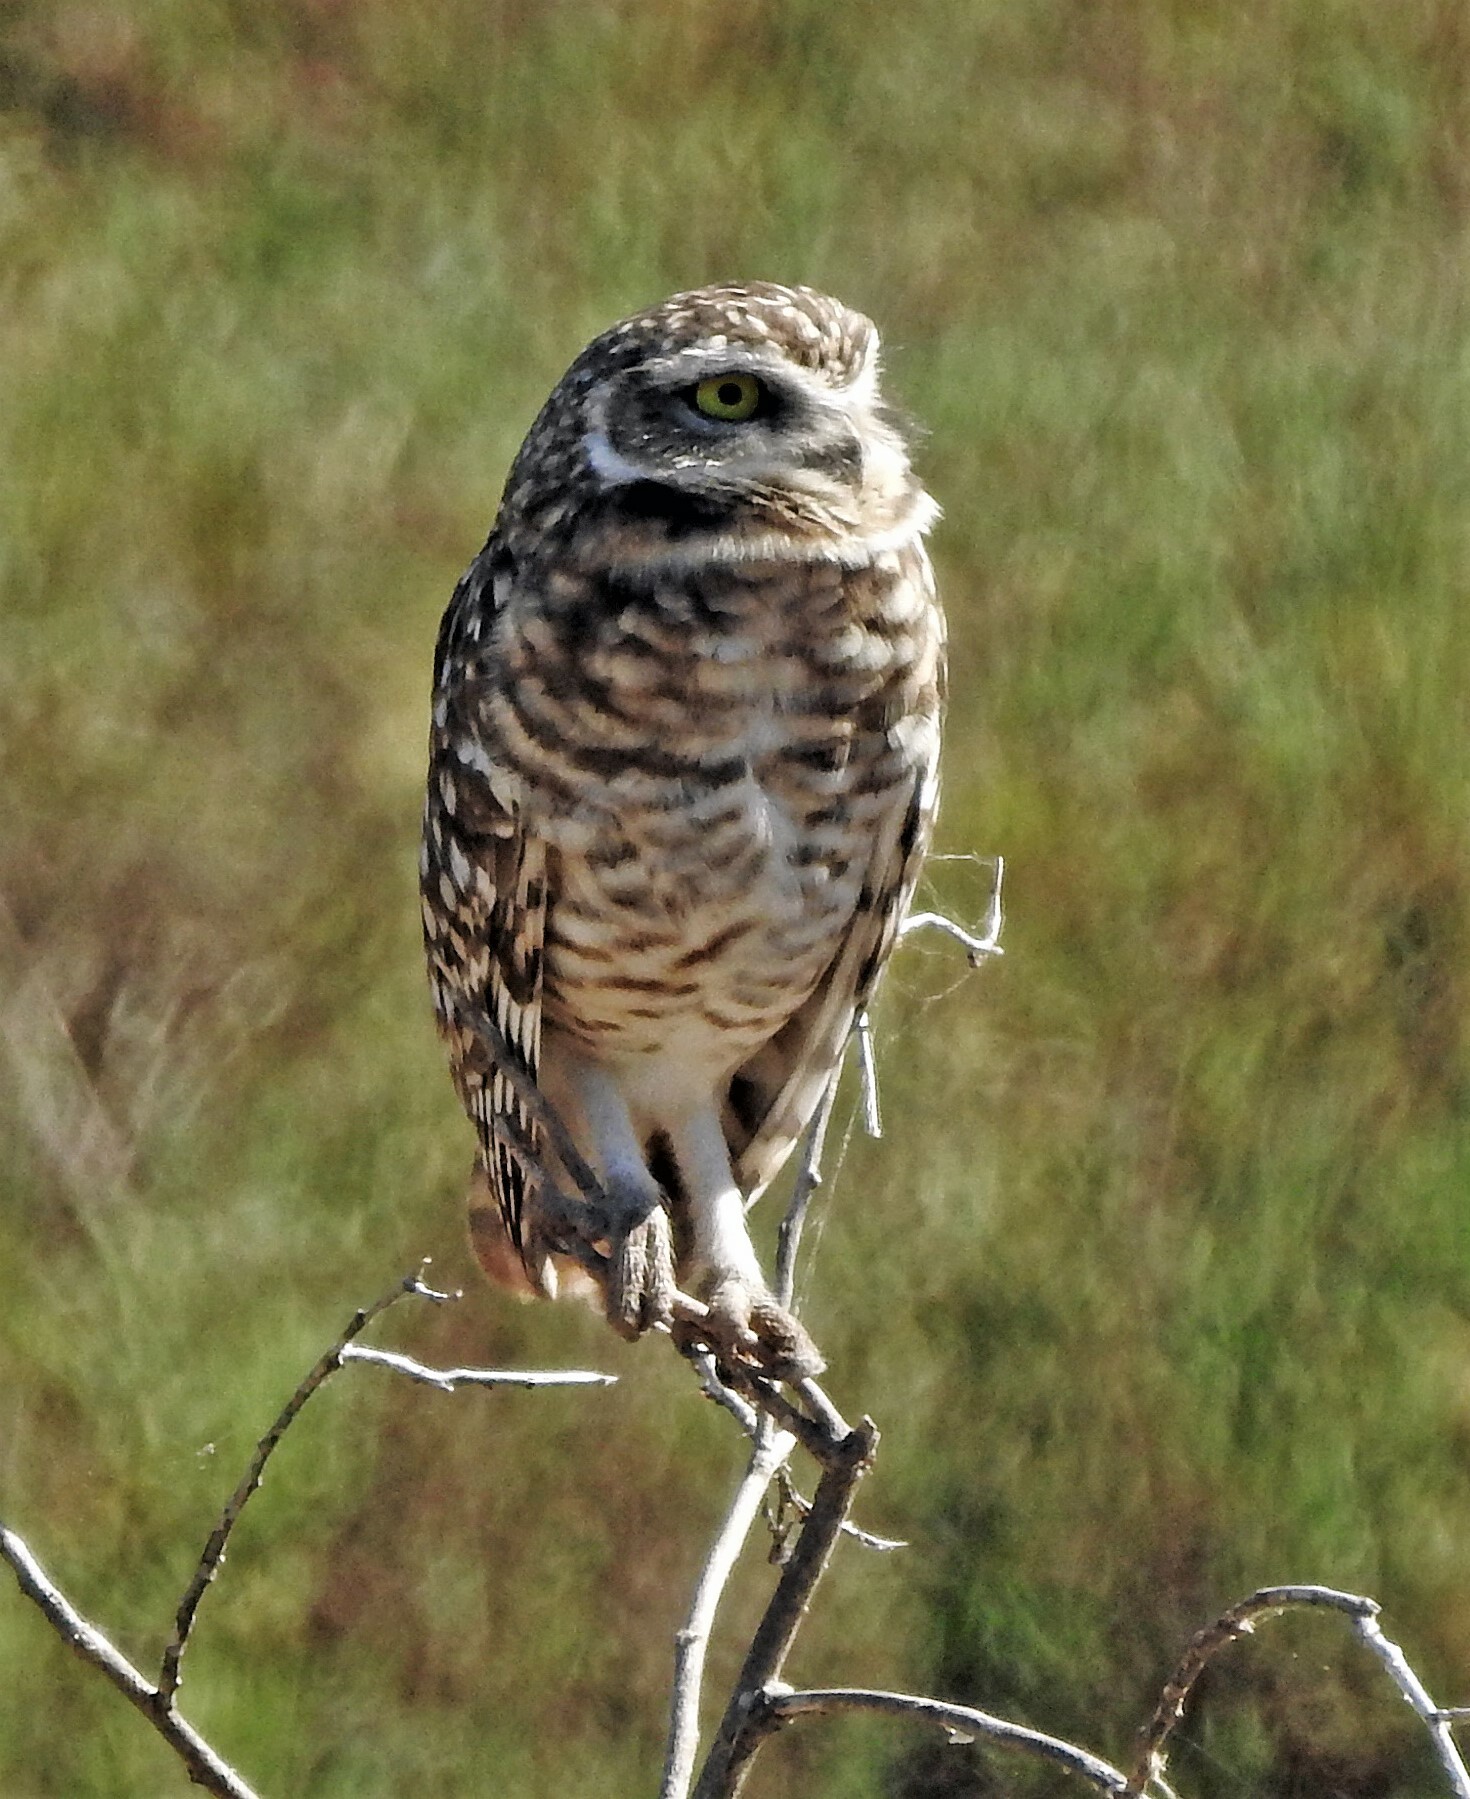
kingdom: Animalia
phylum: Chordata
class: Aves
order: Strigiformes
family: Strigidae
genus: Athene
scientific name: Athene cunicularia
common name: Burrowing owl
